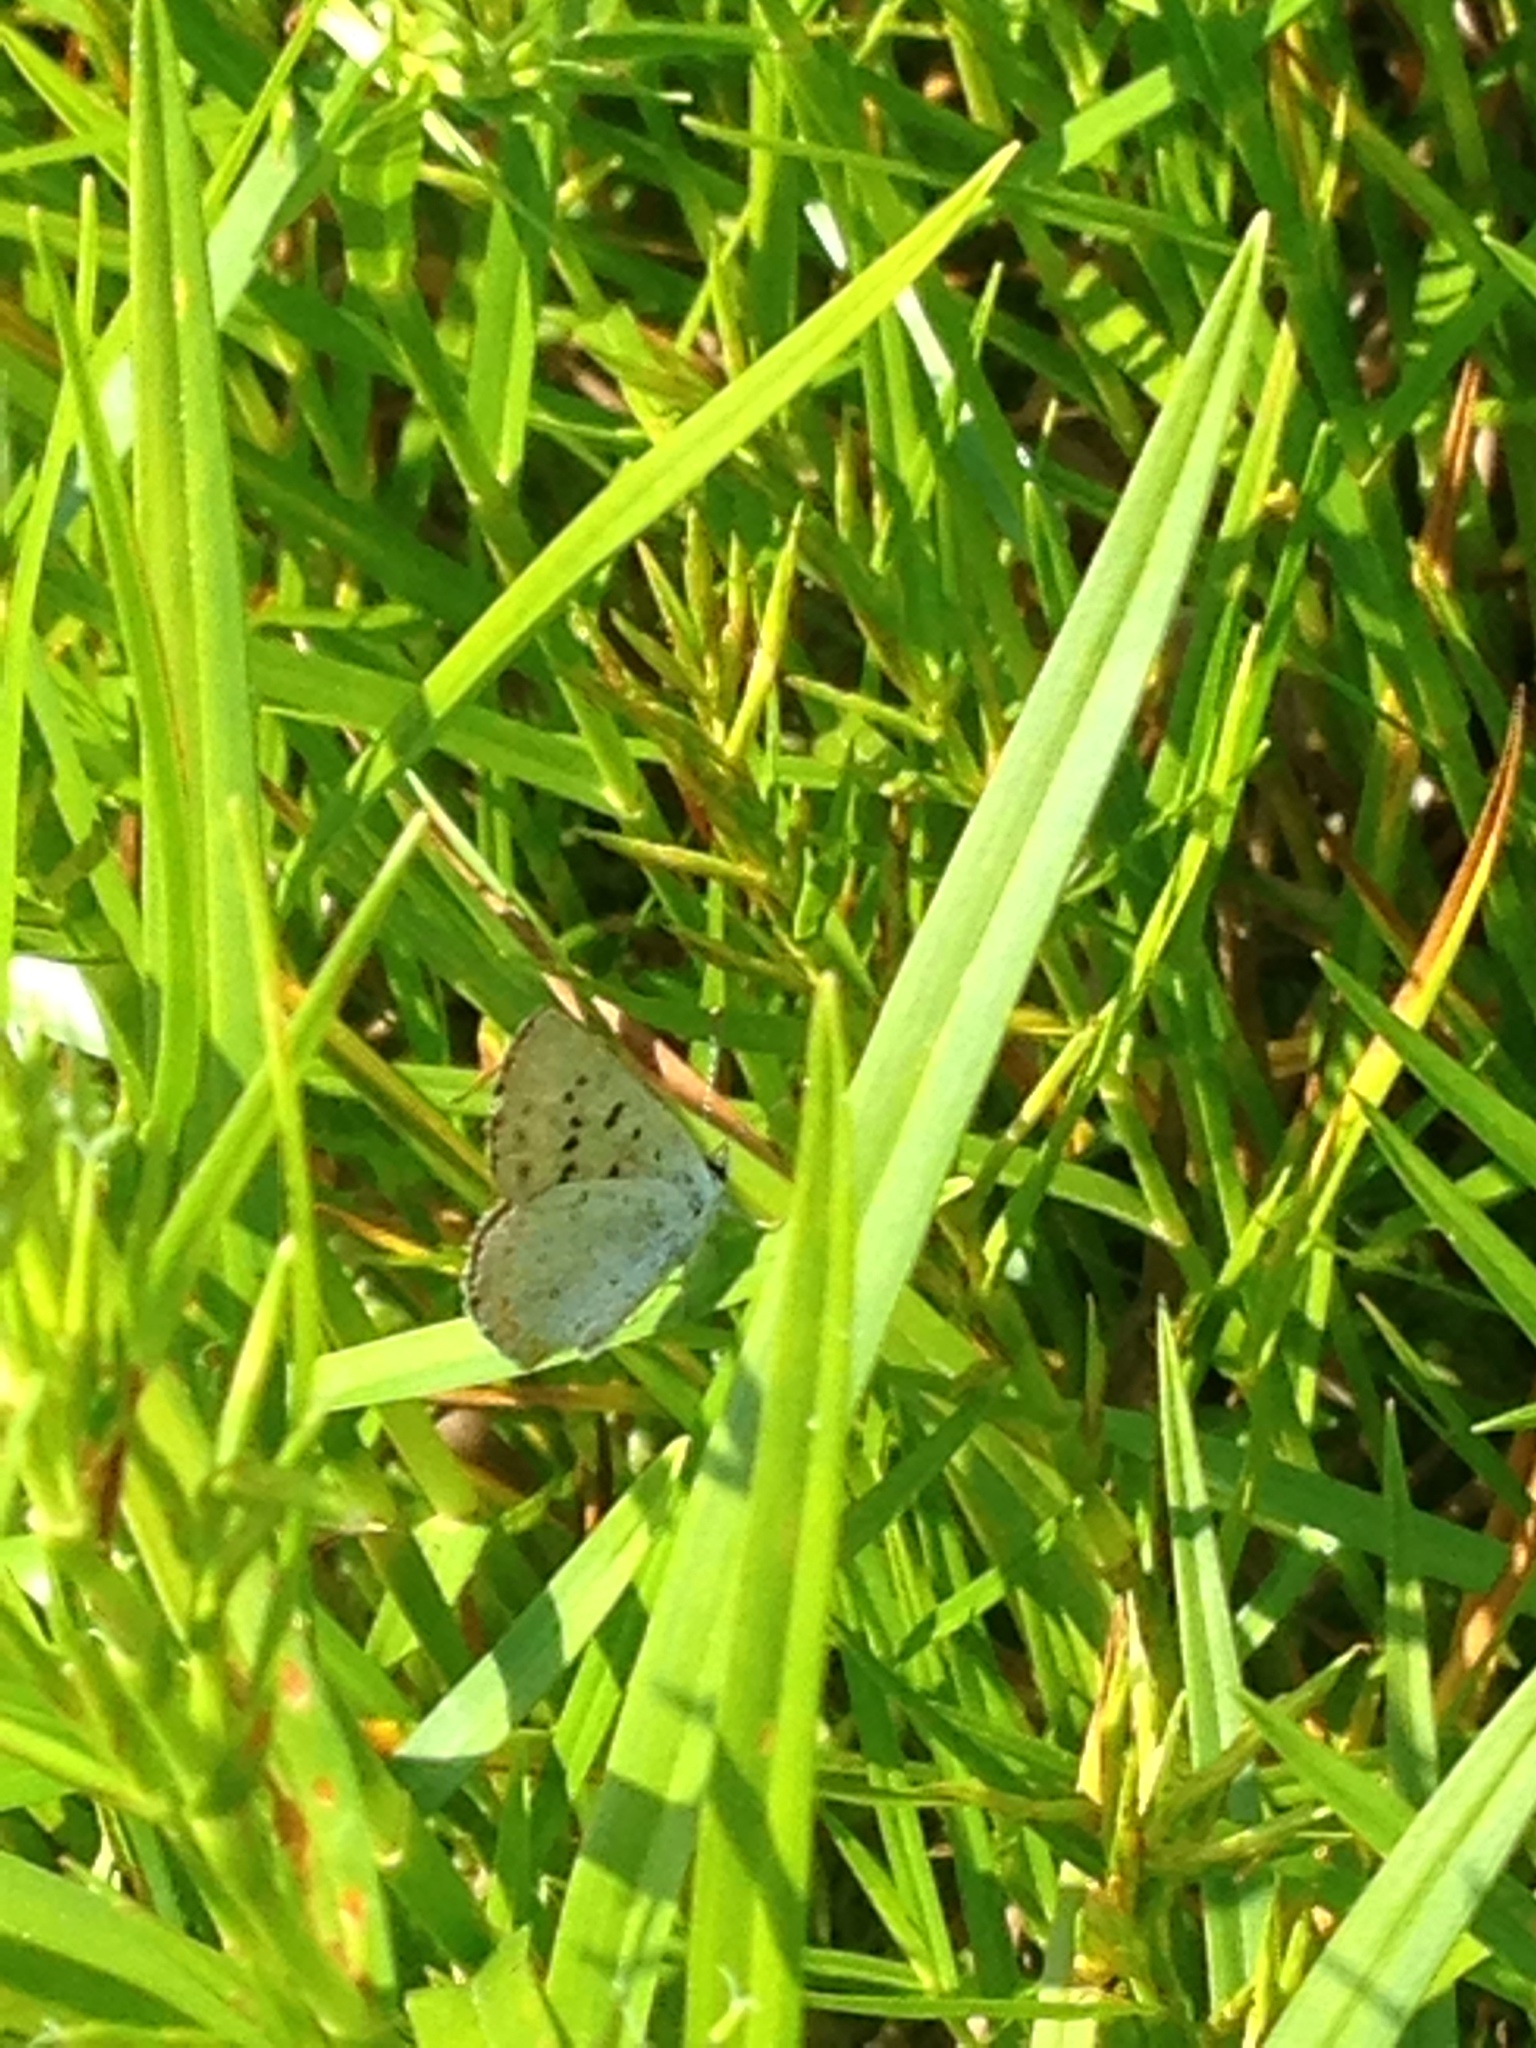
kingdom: Animalia
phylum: Arthropoda
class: Insecta
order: Lepidoptera
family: Lycaenidae
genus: Tharsalea
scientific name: Tharsalea epixanthe
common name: Bog copper
